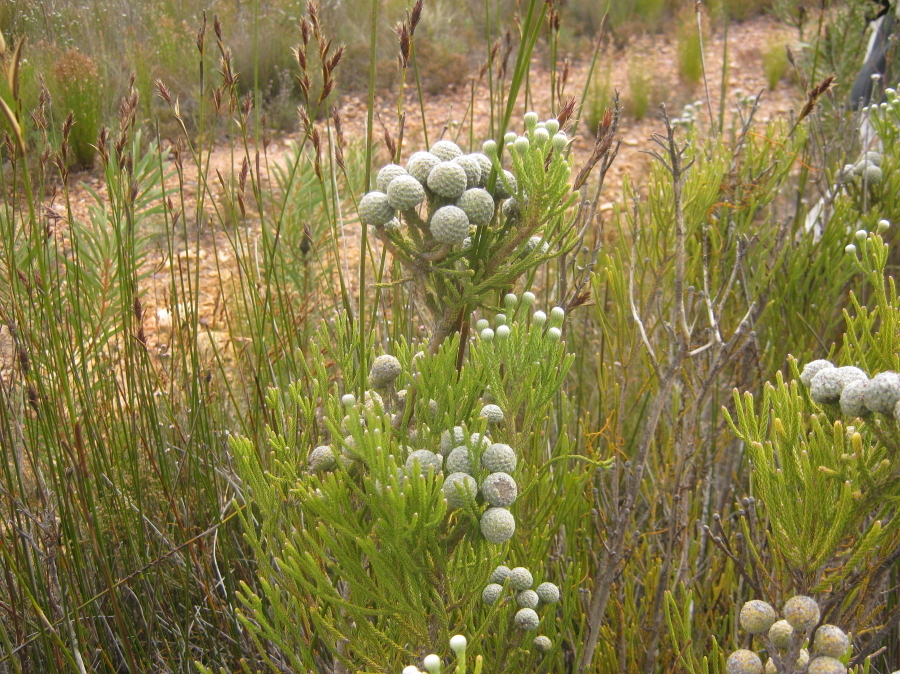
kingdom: Plantae
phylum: Tracheophyta
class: Magnoliopsida
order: Bruniales
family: Bruniaceae
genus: Brunia
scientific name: Brunia noduliflora
